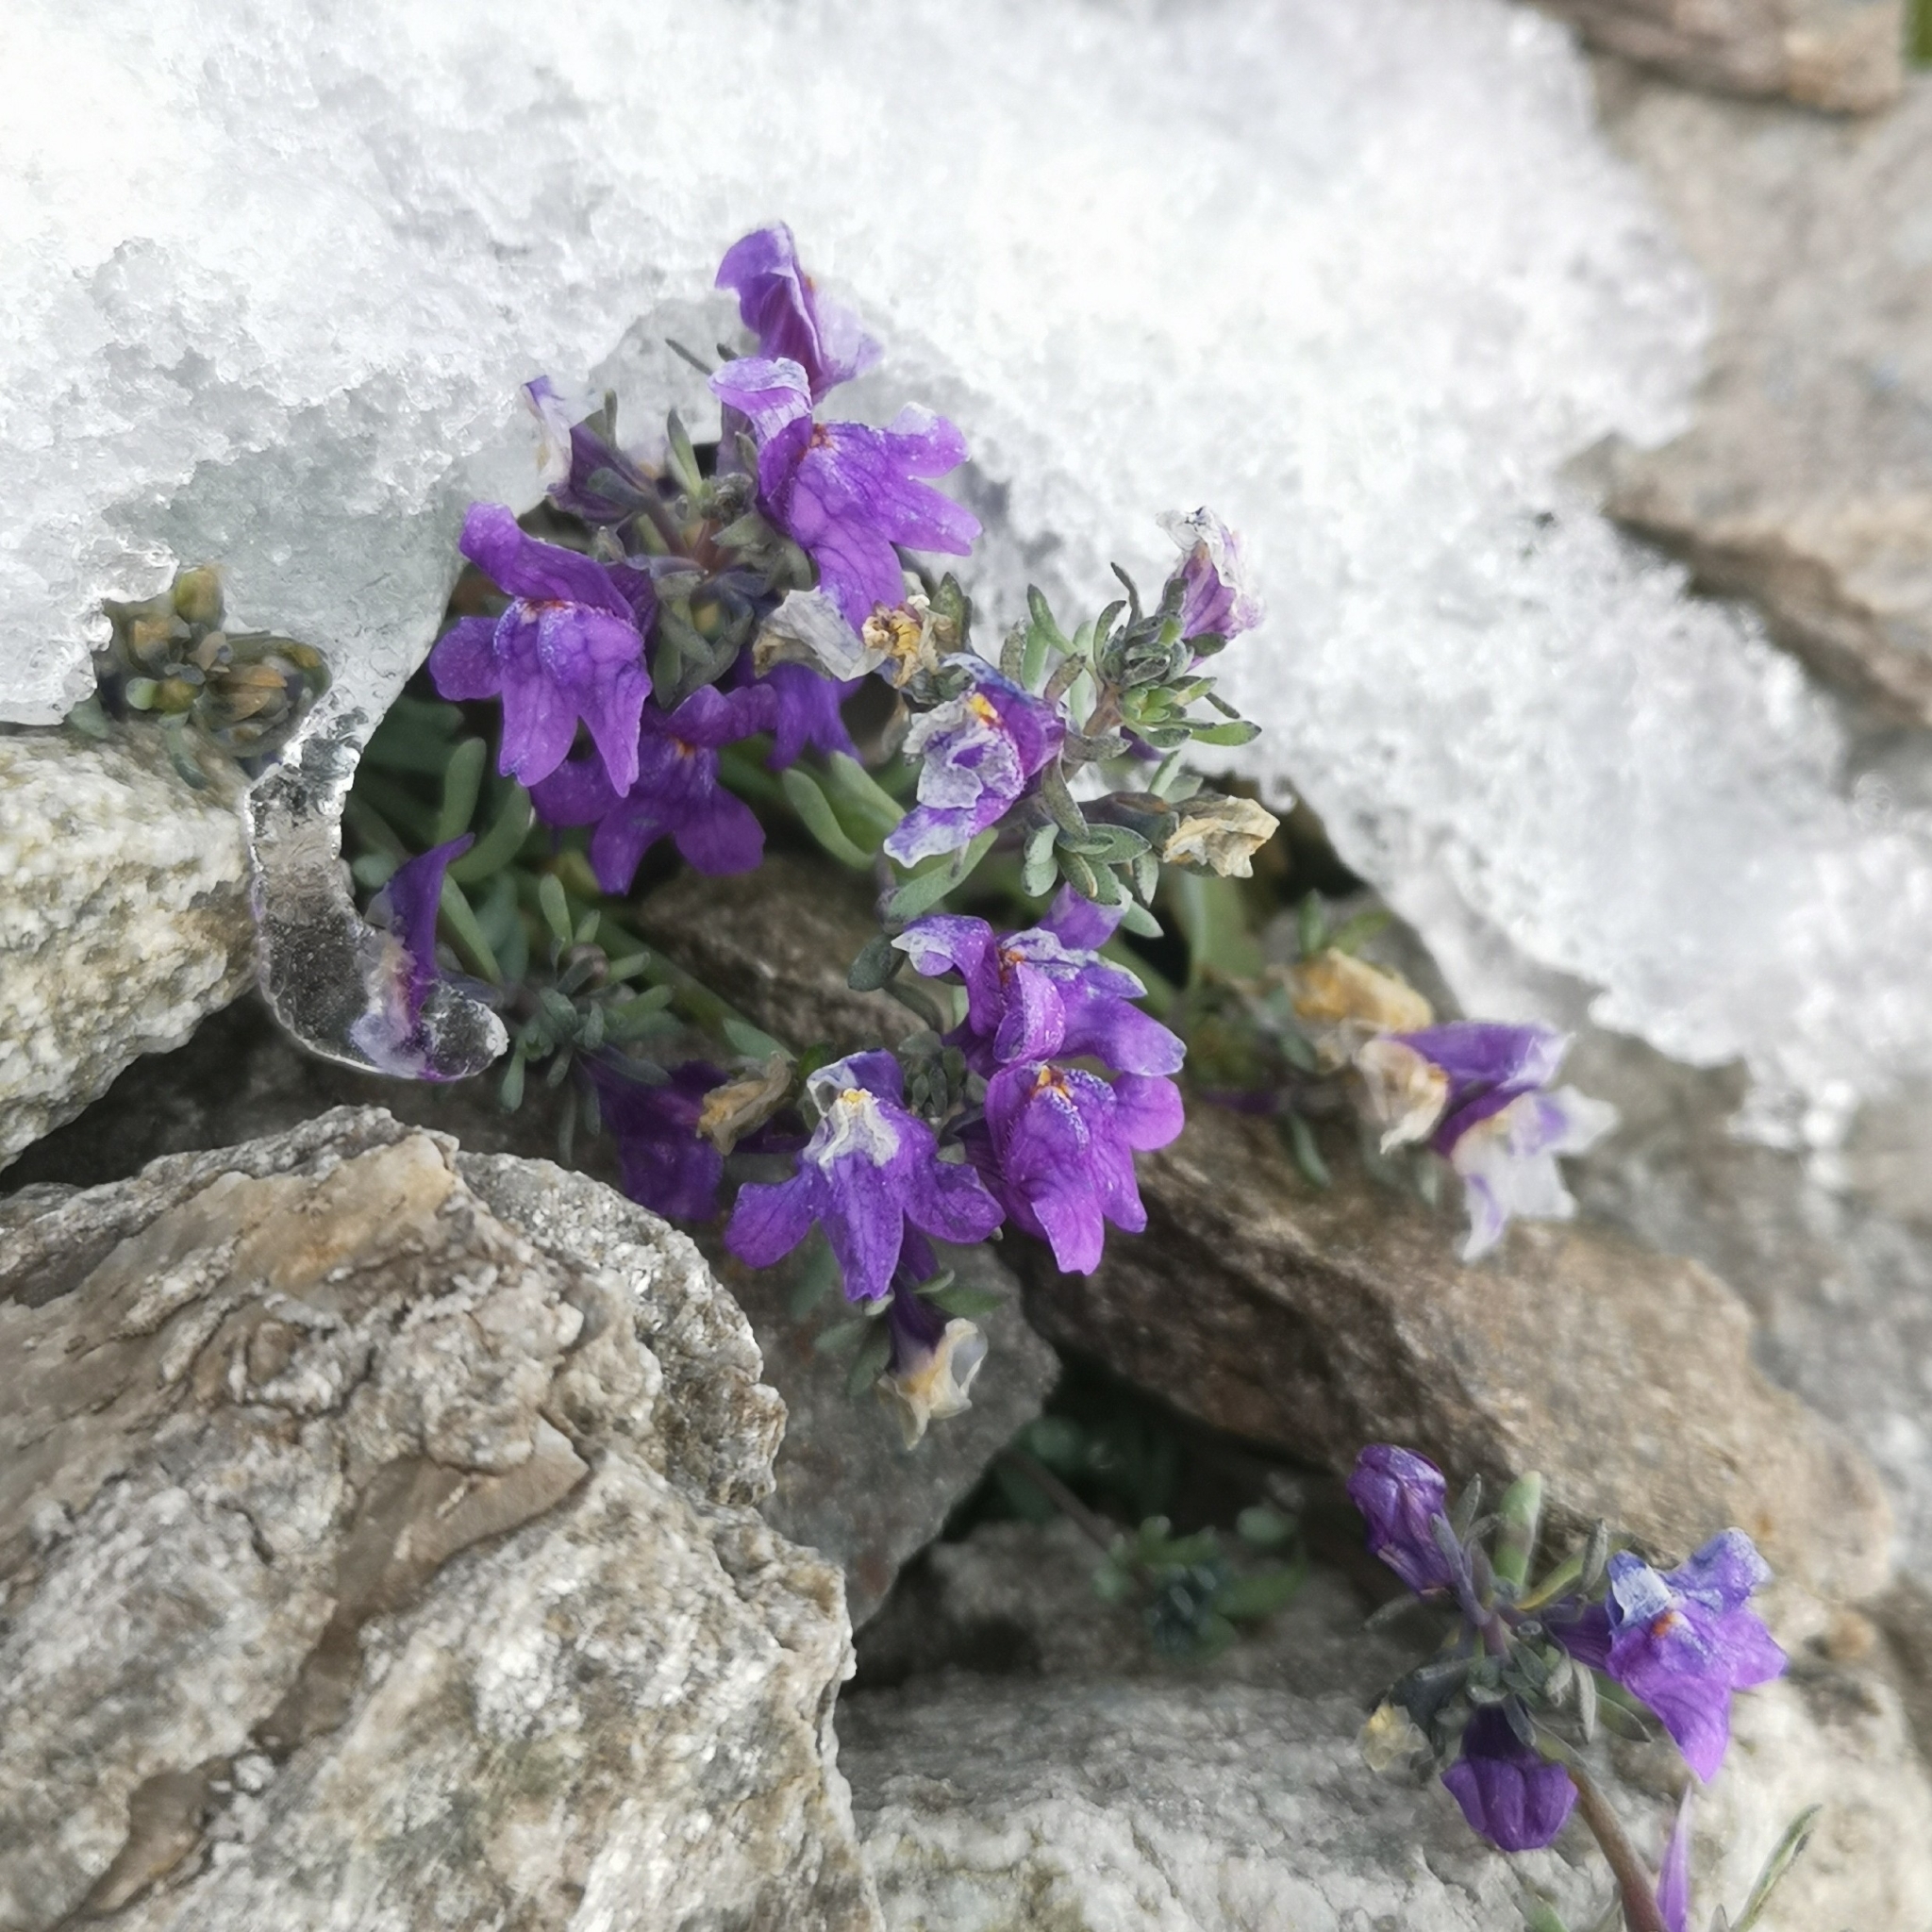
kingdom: Plantae
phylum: Tracheophyta
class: Magnoliopsida
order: Lamiales
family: Plantaginaceae
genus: Linaria
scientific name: Linaria alpina
